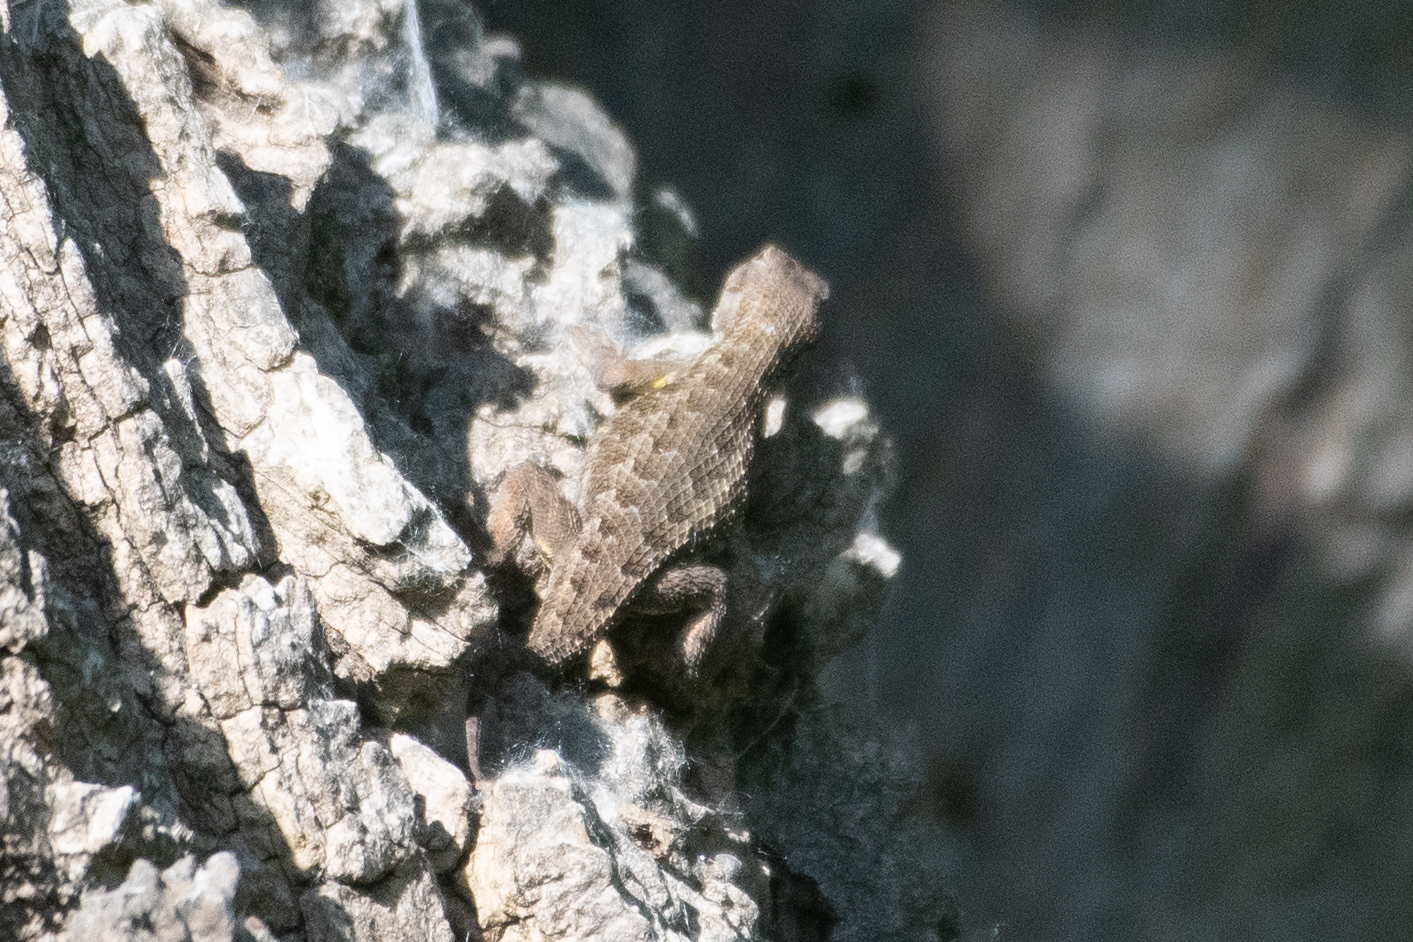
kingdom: Animalia
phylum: Chordata
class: Squamata
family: Phrynosomatidae
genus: Sceloporus
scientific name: Sceloporus occidentalis
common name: Western fence lizard
